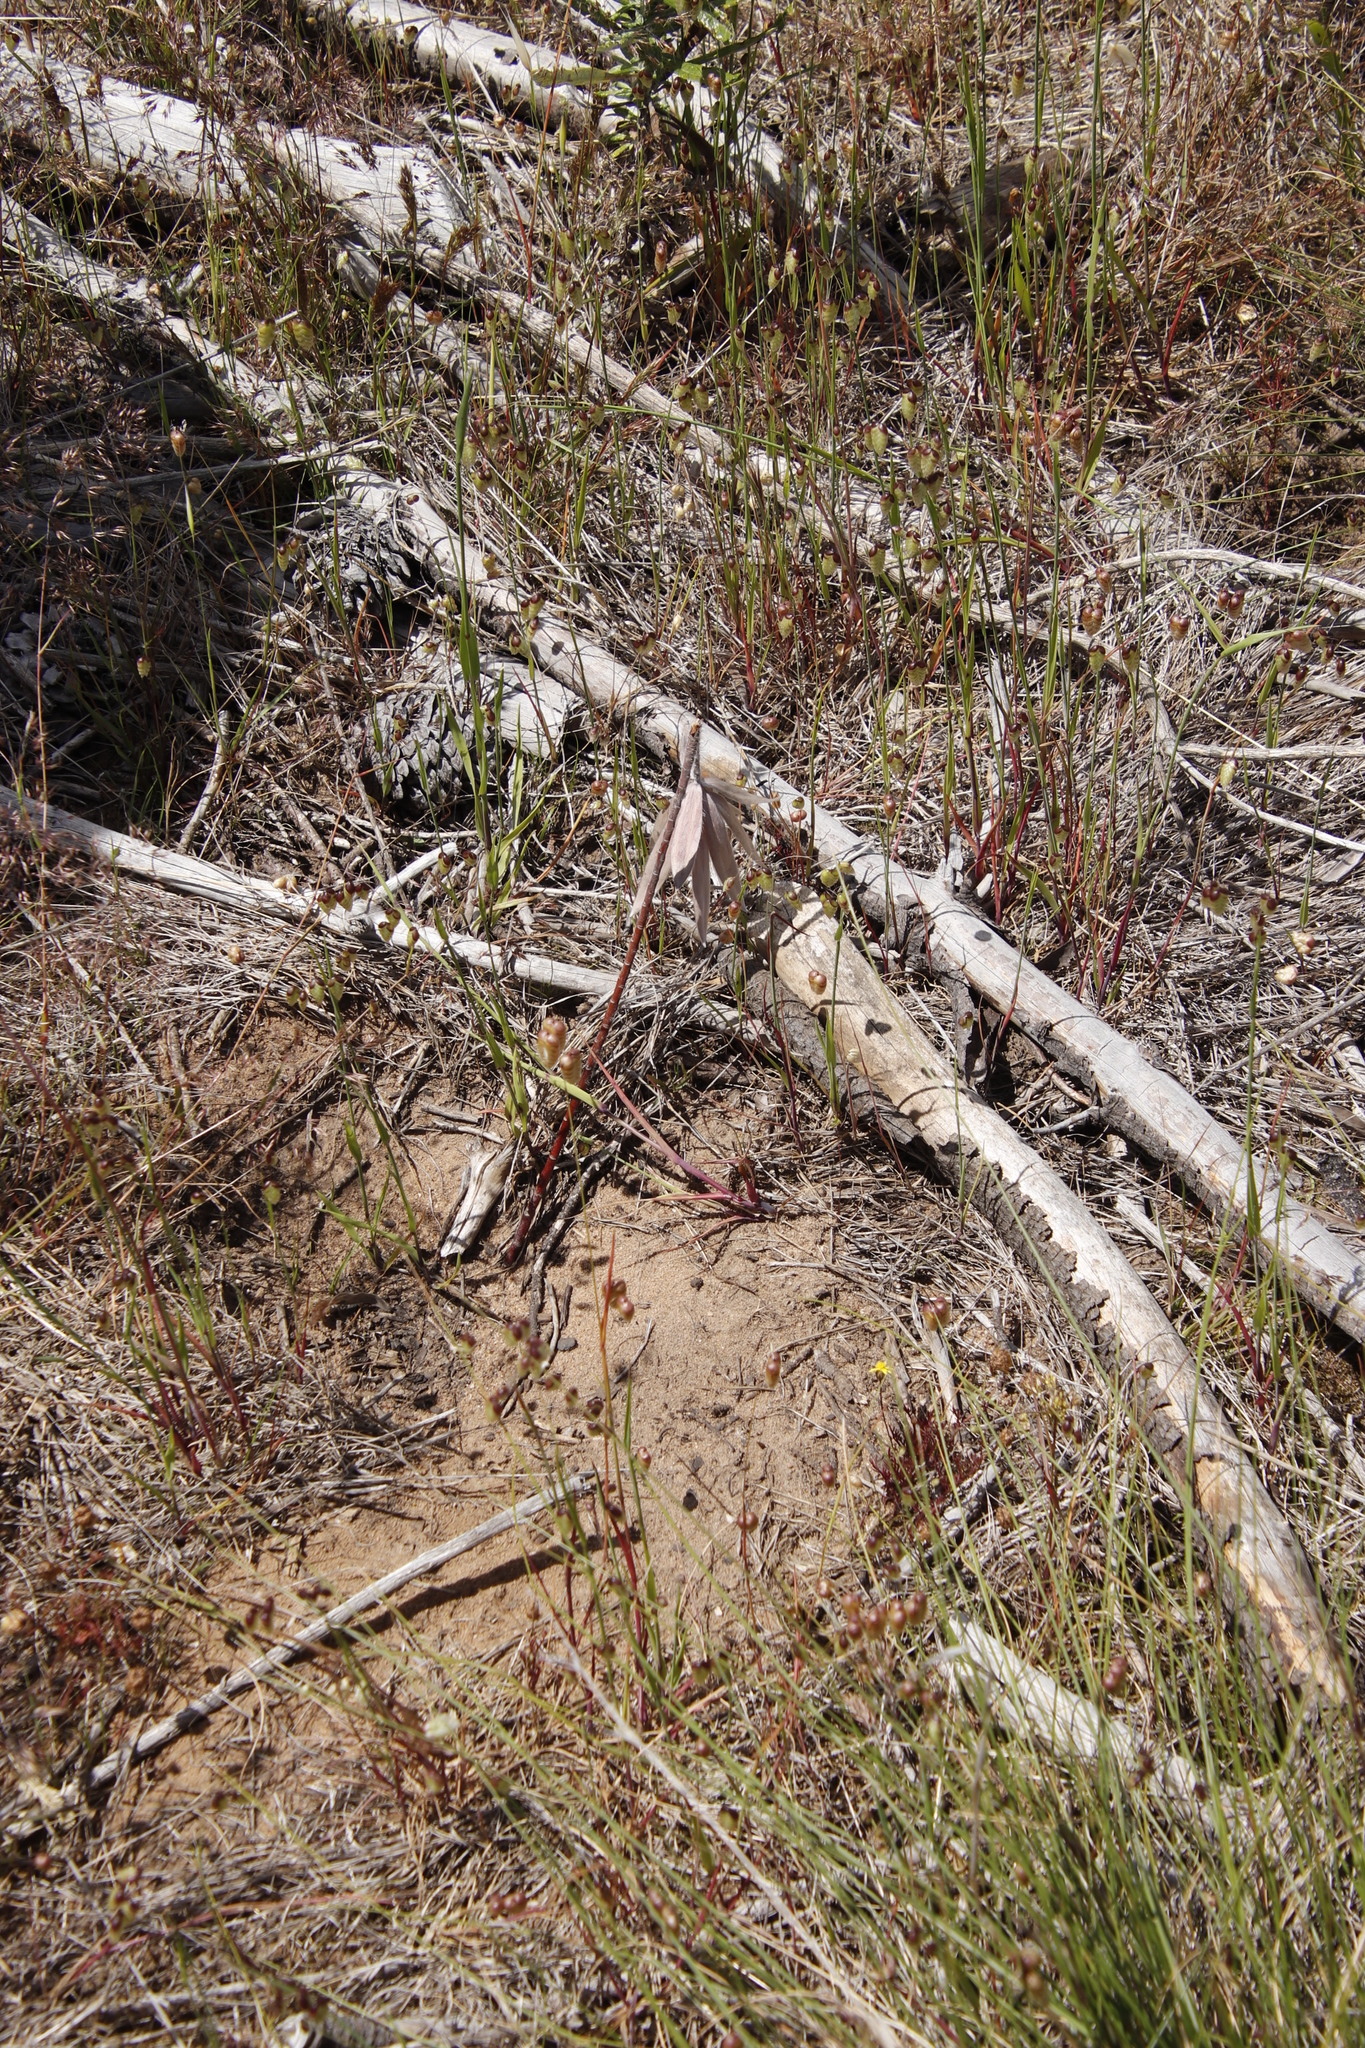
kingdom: Plantae
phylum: Tracheophyta
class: Magnoliopsida
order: Proteales
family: Proteaceae
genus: Leucadendron
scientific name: Leucadendron argenteum
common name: Cape silver tree
